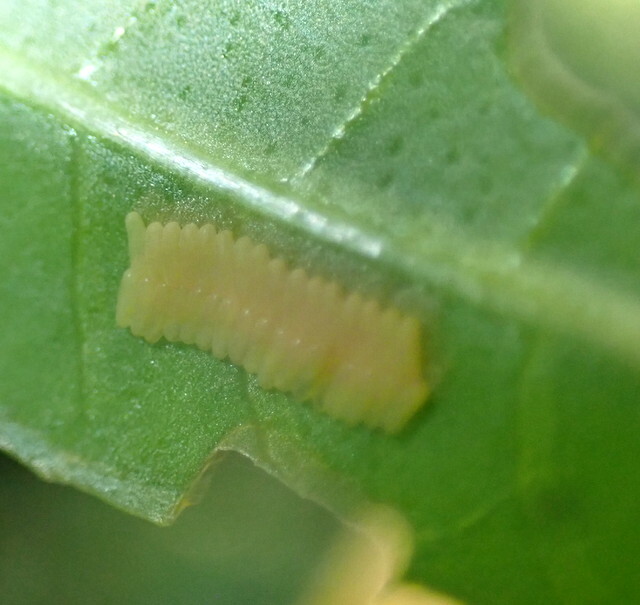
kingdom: Animalia
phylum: Arthropoda
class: Insecta
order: Coleoptera
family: Chrysomelidae
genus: Agasicles
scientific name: Agasicles hygrophila
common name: Alligatorweed flea beetle
